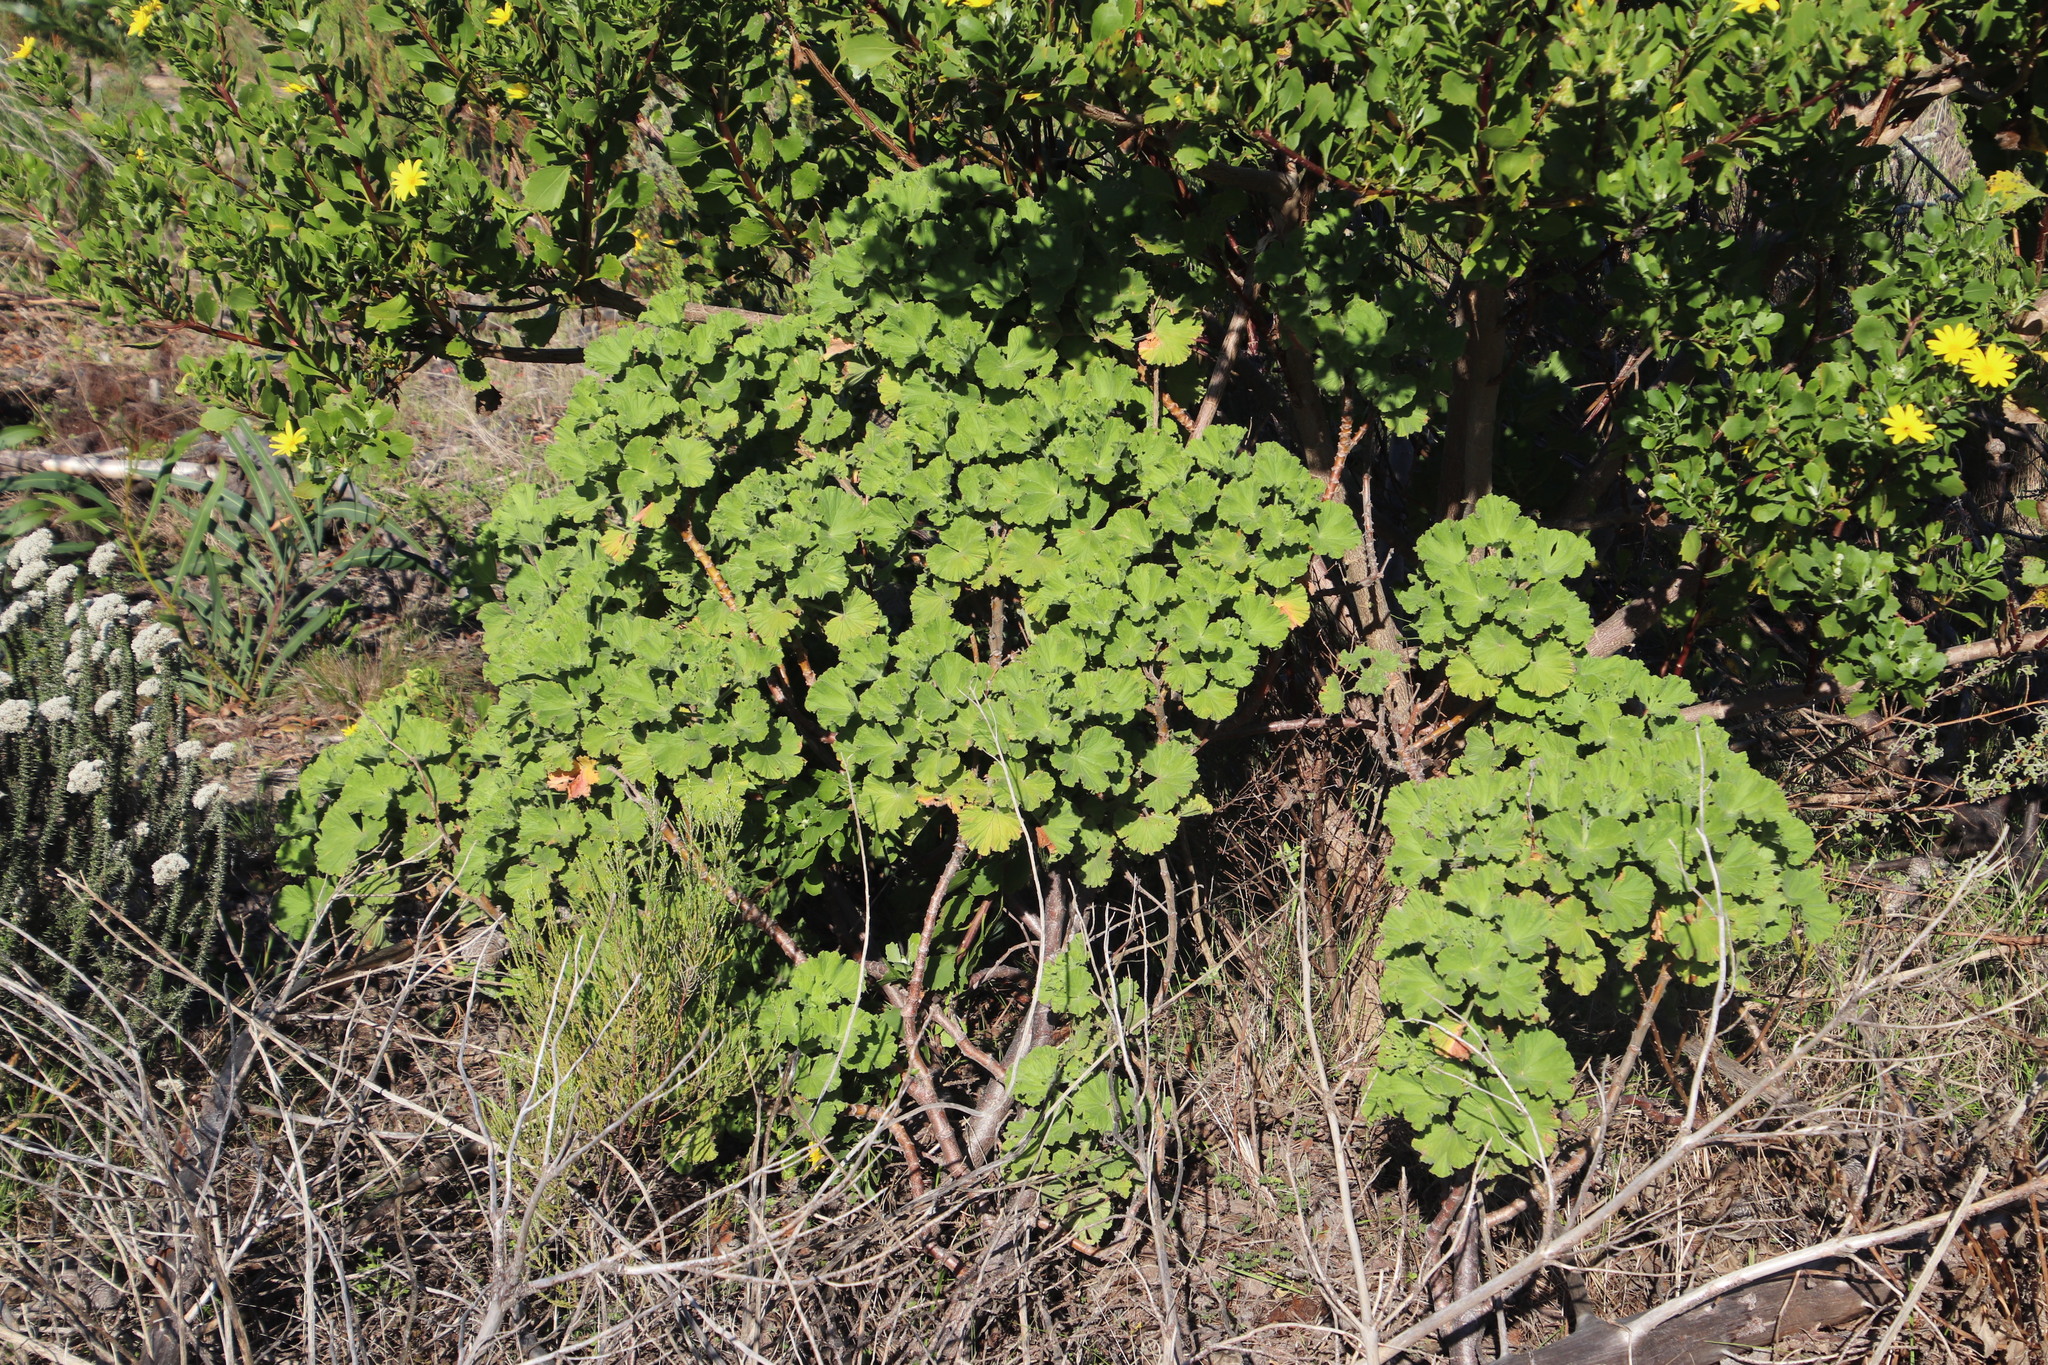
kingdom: Plantae
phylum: Tracheophyta
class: Magnoliopsida
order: Geraniales
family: Geraniaceae
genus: Pelargonium
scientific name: Pelargonium cucullatum
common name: Tree pelargonium
